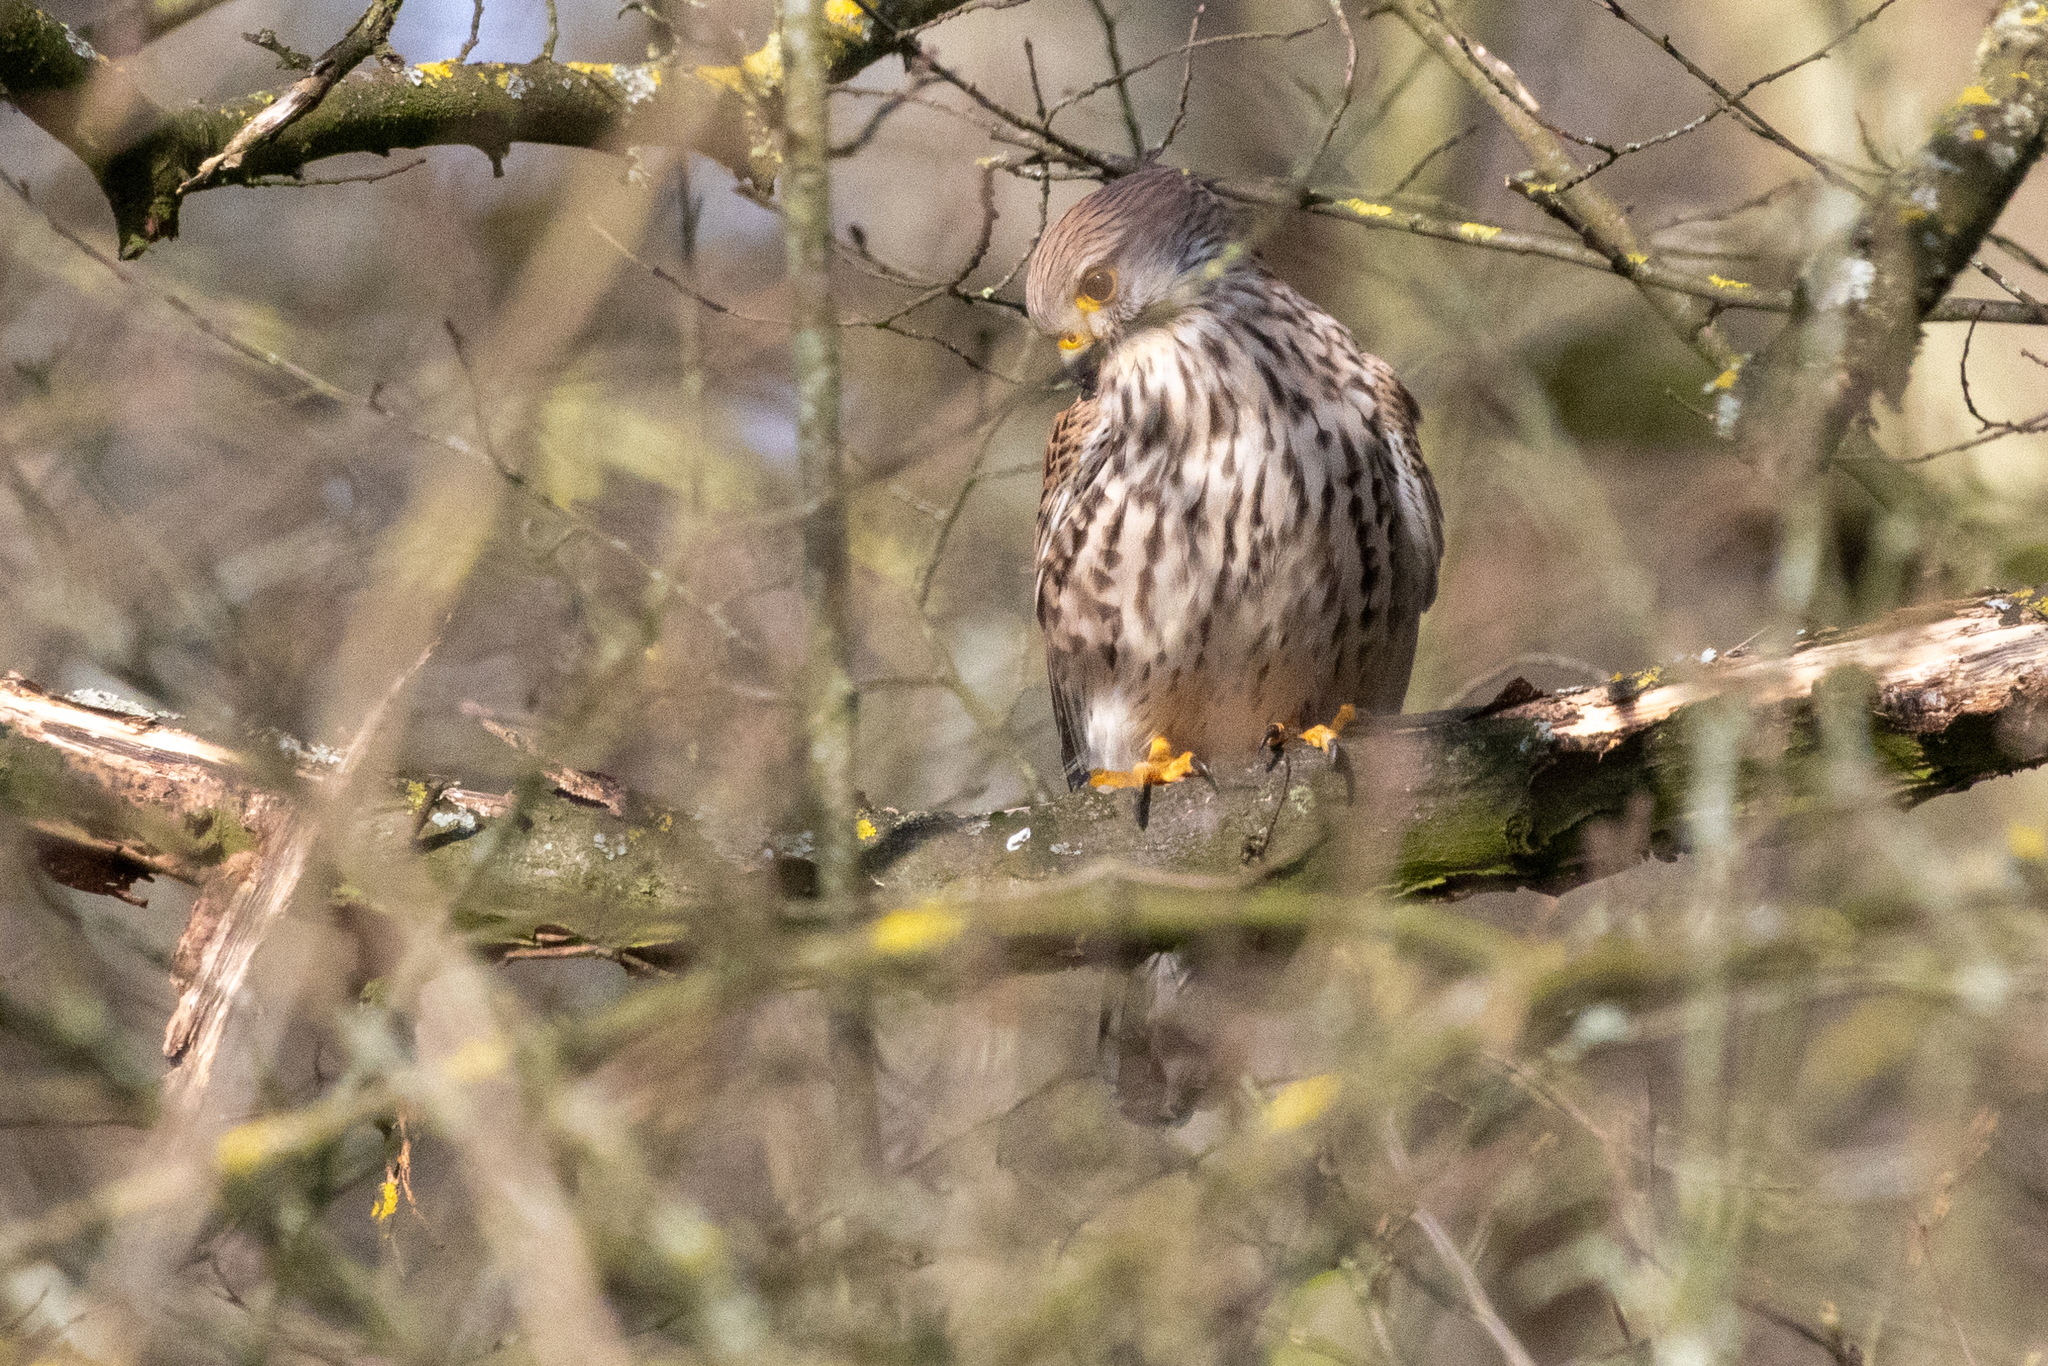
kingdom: Animalia
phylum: Chordata
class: Aves
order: Falconiformes
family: Falconidae
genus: Falco
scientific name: Falco tinnunculus
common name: Common kestrel
